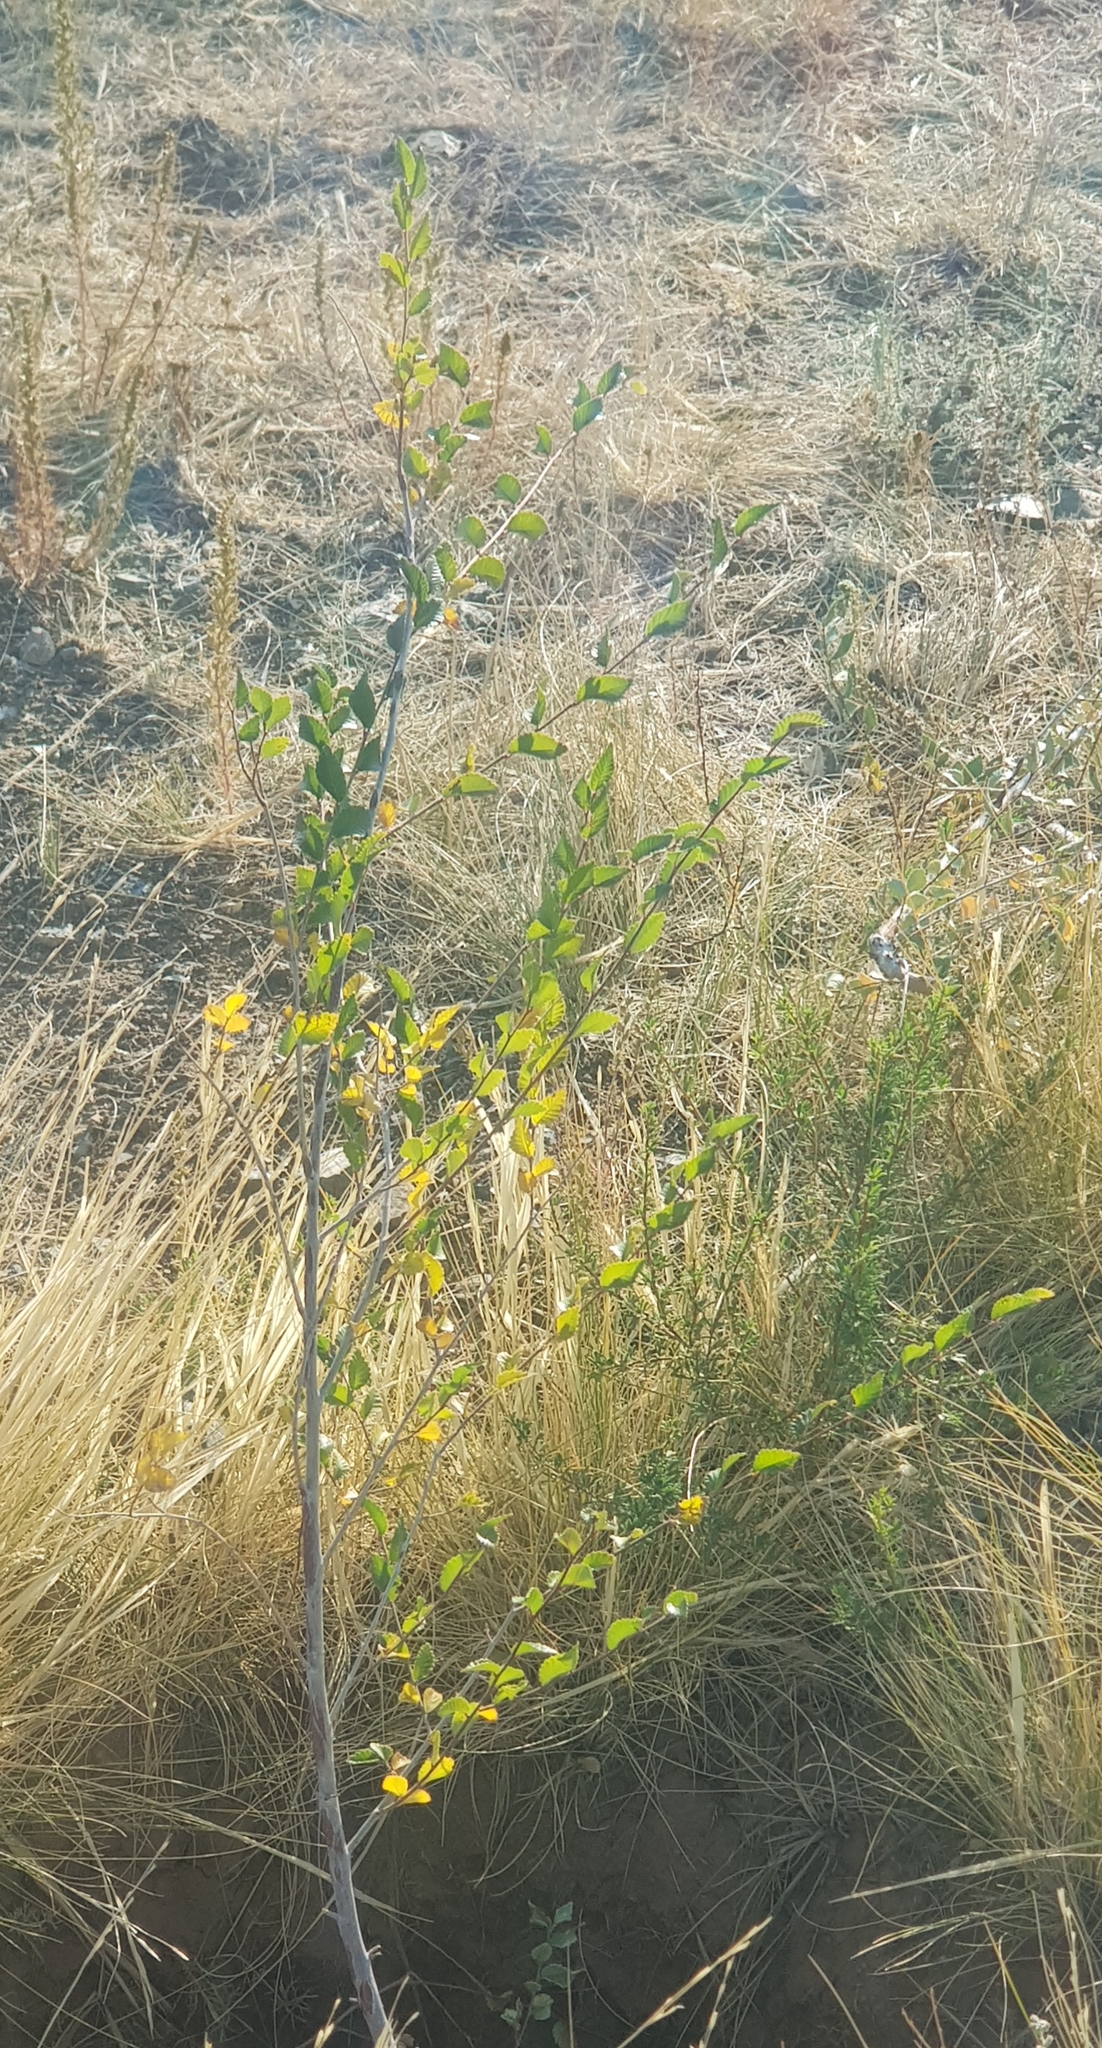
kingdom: Plantae
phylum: Tracheophyta
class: Magnoliopsida
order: Rosales
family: Elaeagnaceae
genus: Elaeagnus
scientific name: Elaeagnus angustifolia
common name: Russian olive
